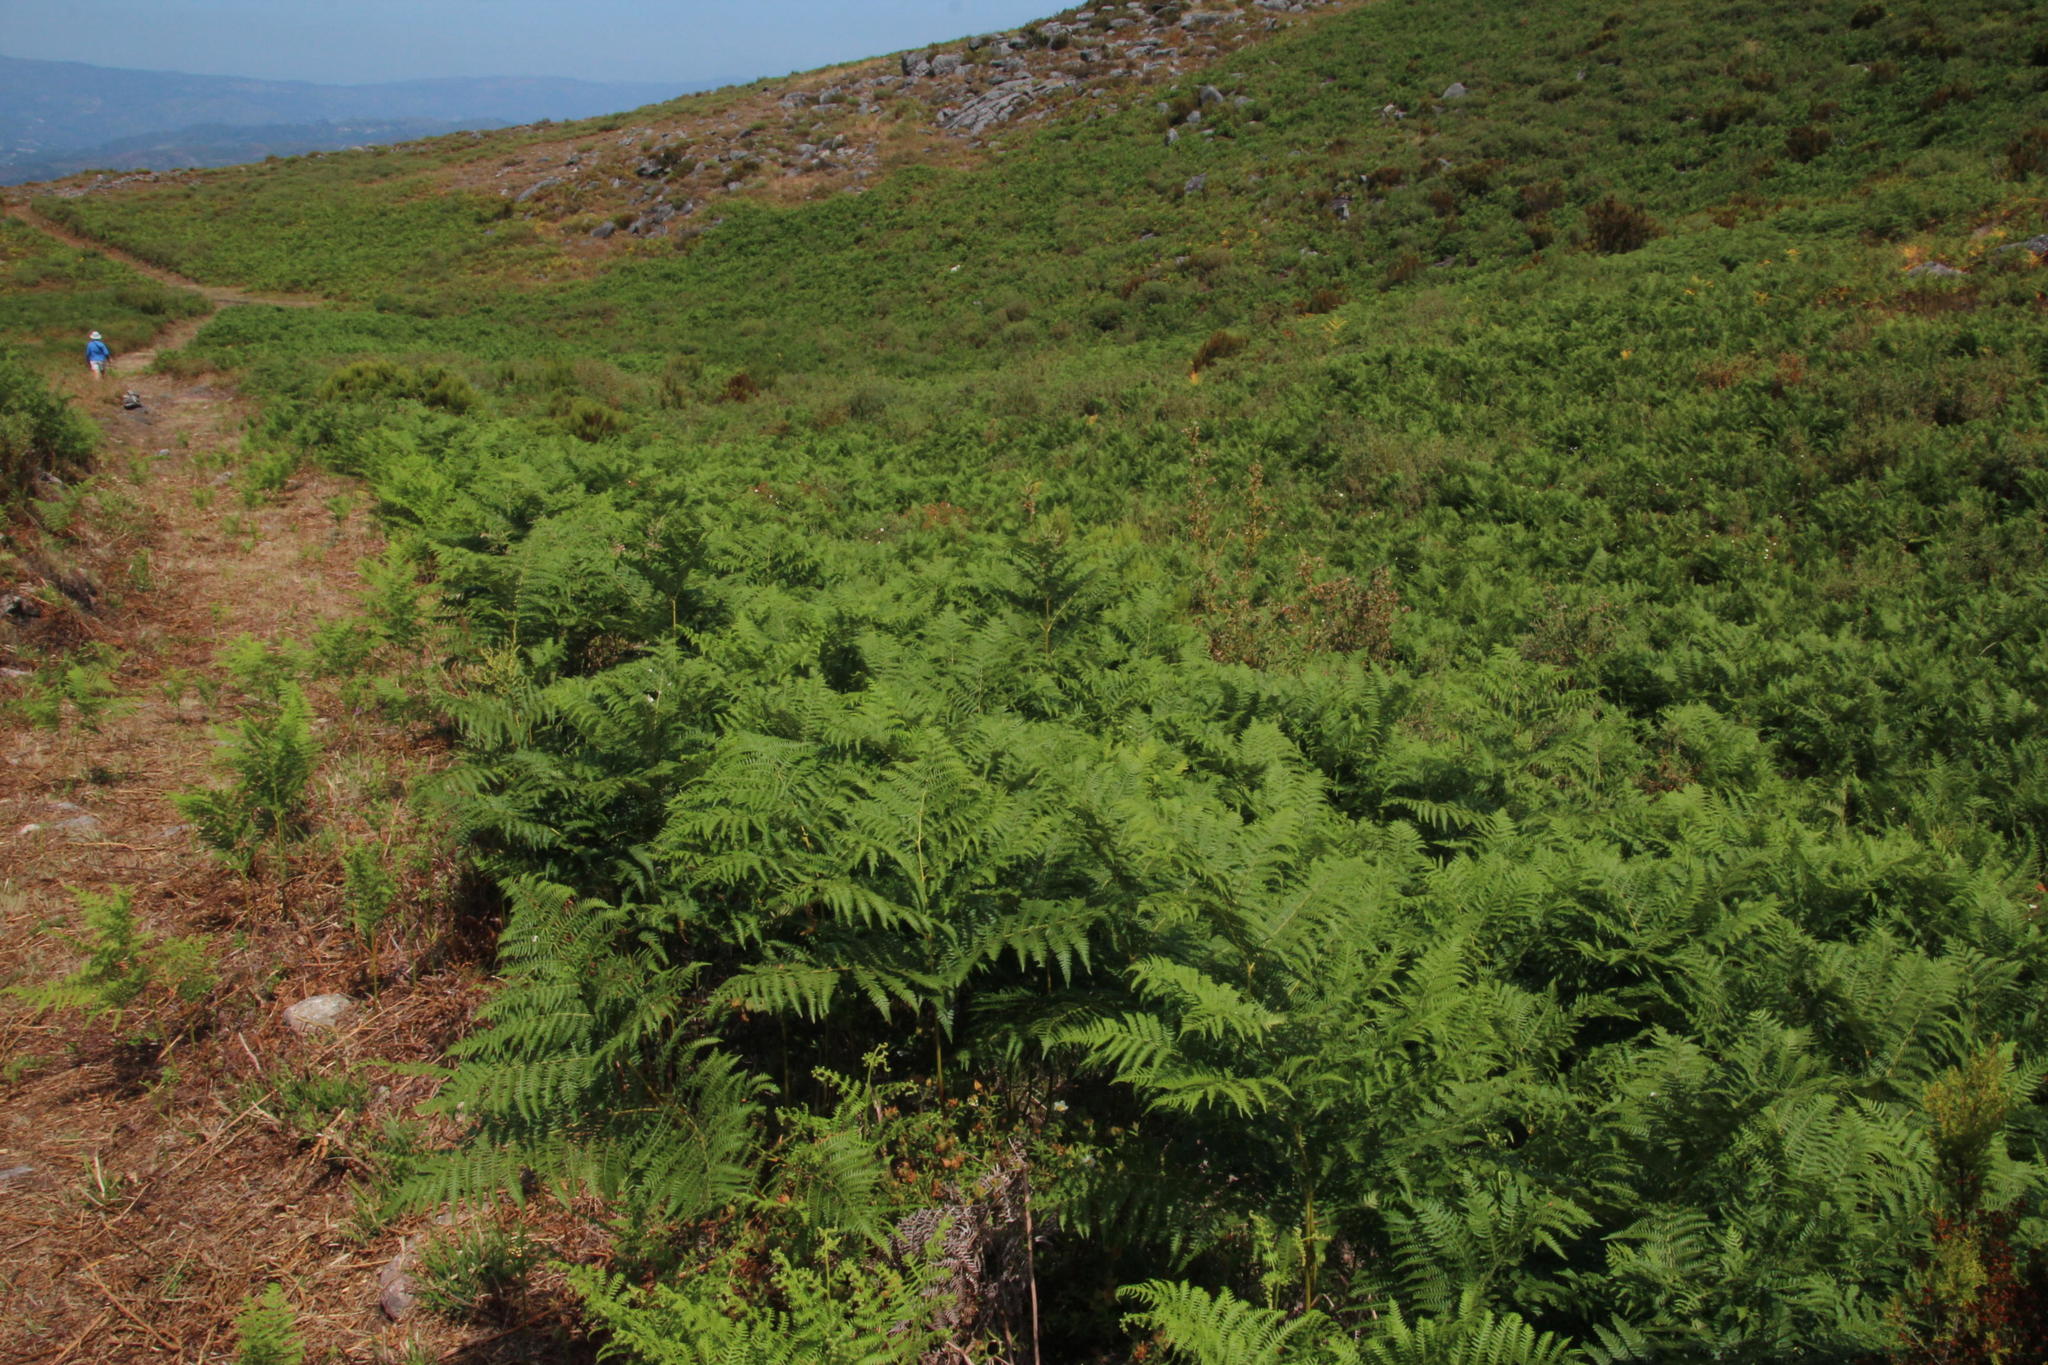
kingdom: Plantae
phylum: Tracheophyta
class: Polypodiopsida
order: Polypodiales
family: Dennstaedtiaceae
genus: Pteridium
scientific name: Pteridium aquilinum
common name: Bracken
